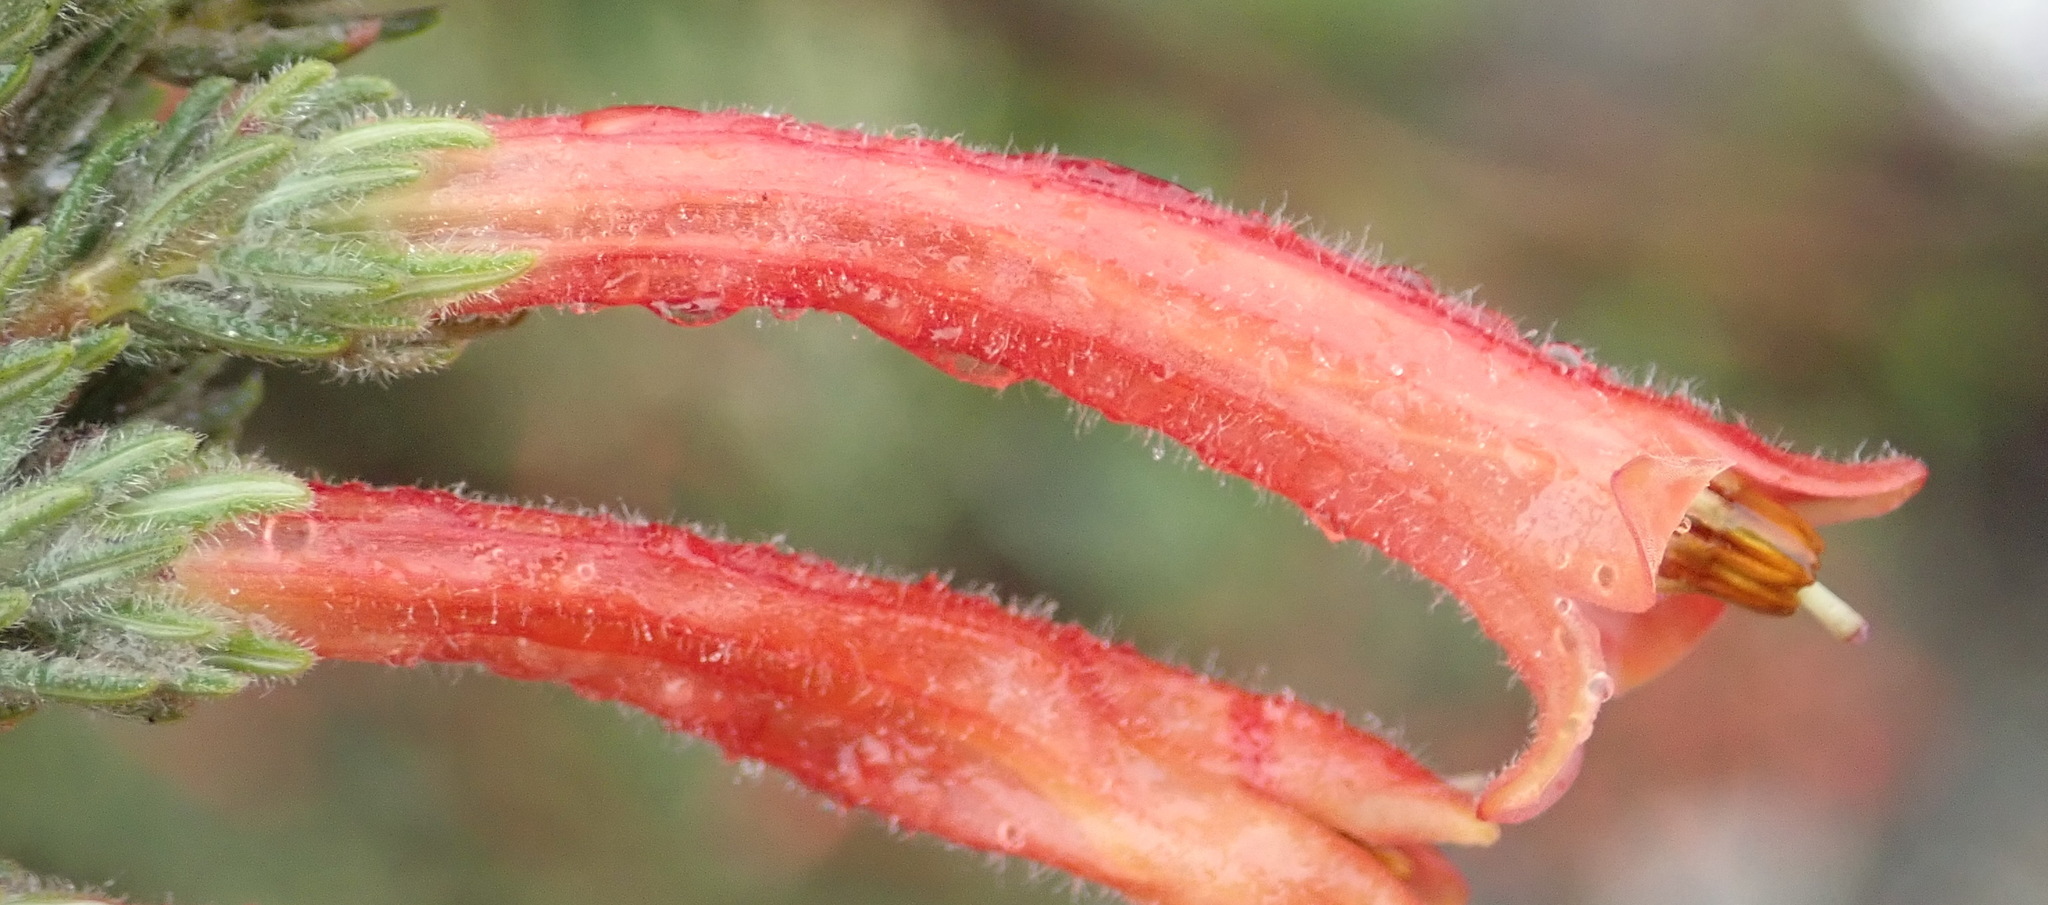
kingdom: Plantae
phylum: Tracheophyta
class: Magnoliopsida
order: Ericales
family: Ericaceae
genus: Erica
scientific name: Erica curviflora
